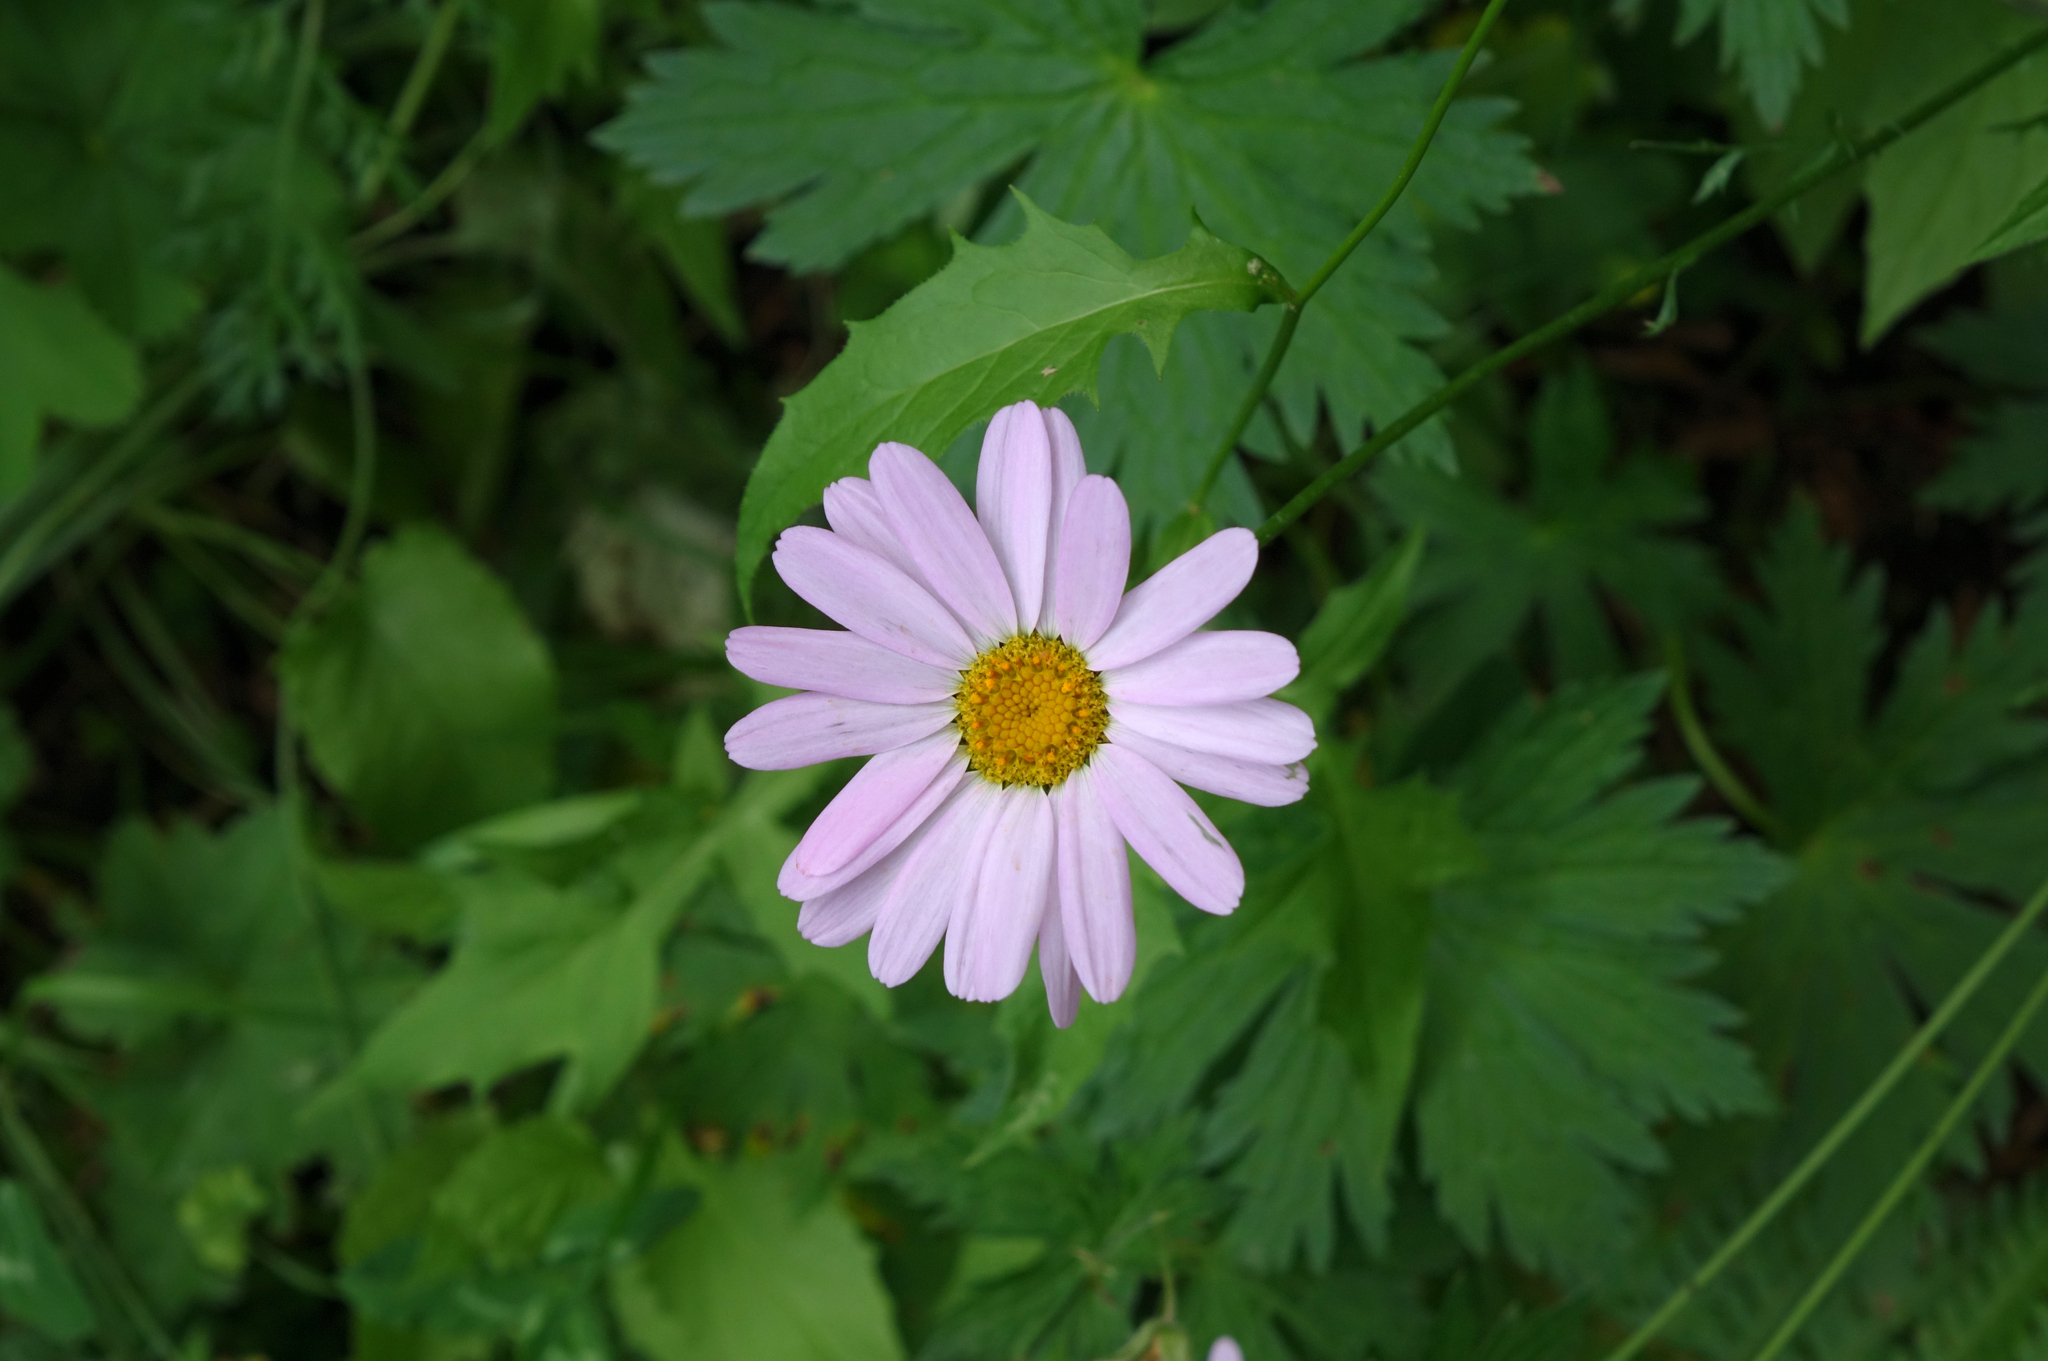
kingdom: Plantae
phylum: Tracheophyta
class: Magnoliopsida
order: Asterales
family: Asteraceae
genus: Tanacetum
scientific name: Tanacetum coccineum
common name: Pyrethum daisy
